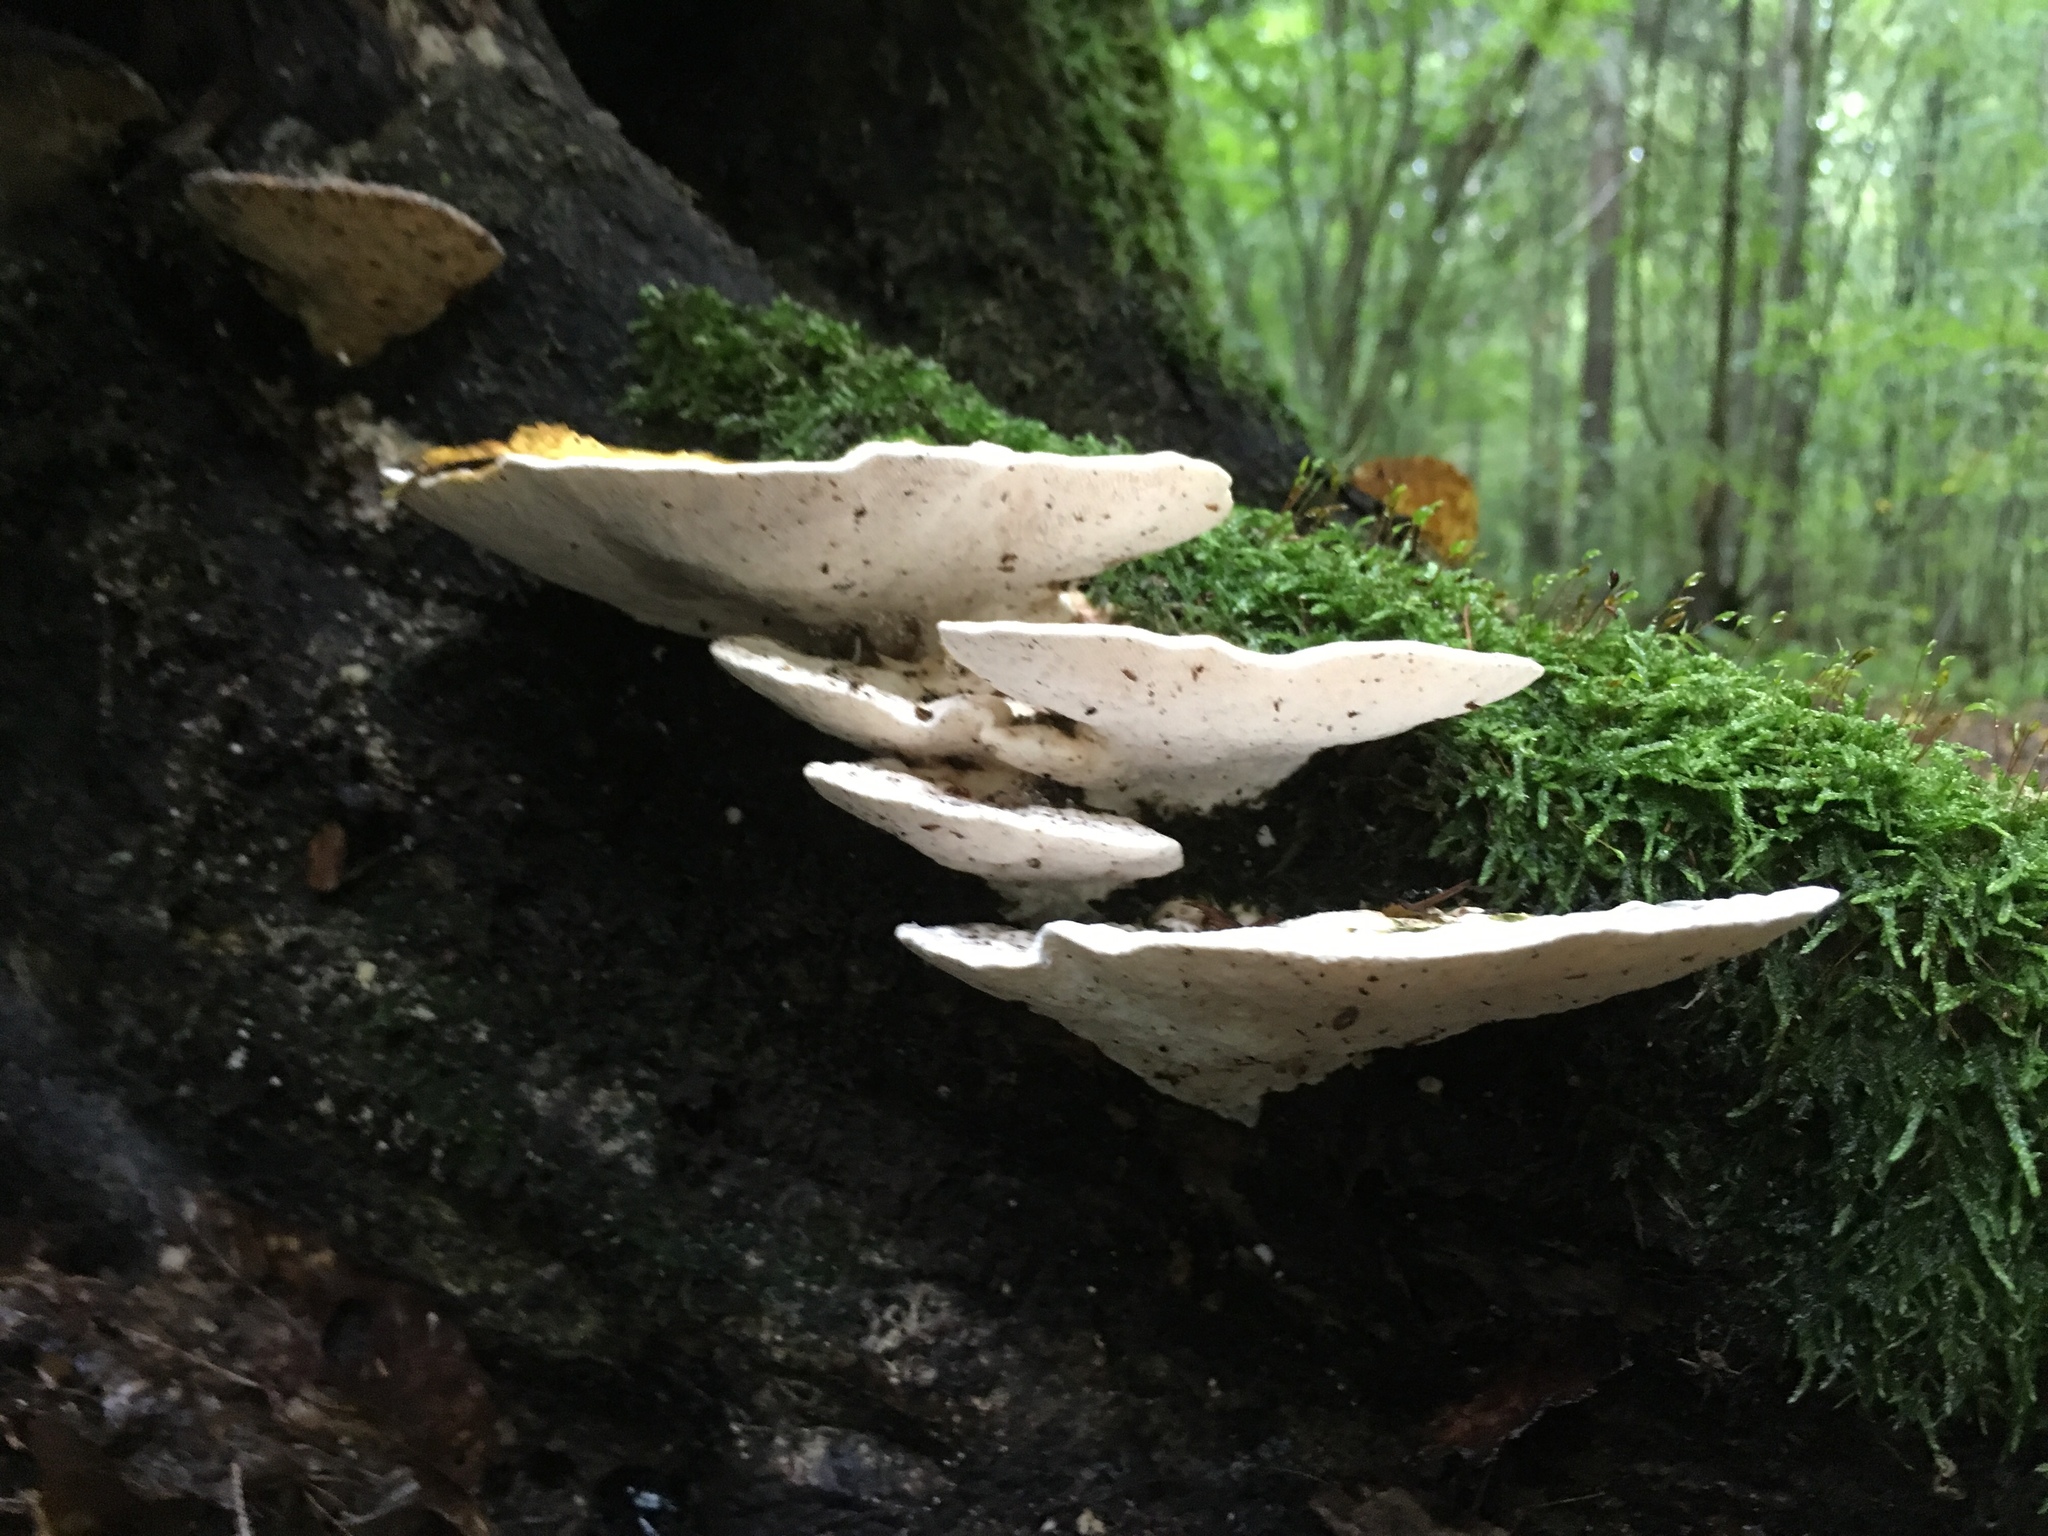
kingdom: Fungi
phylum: Basidiomycota
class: Agaricomycetes
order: Polyporales
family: Polyporaceae
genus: Trametes
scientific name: Trametes gibbosa
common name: Lumpy bracket
